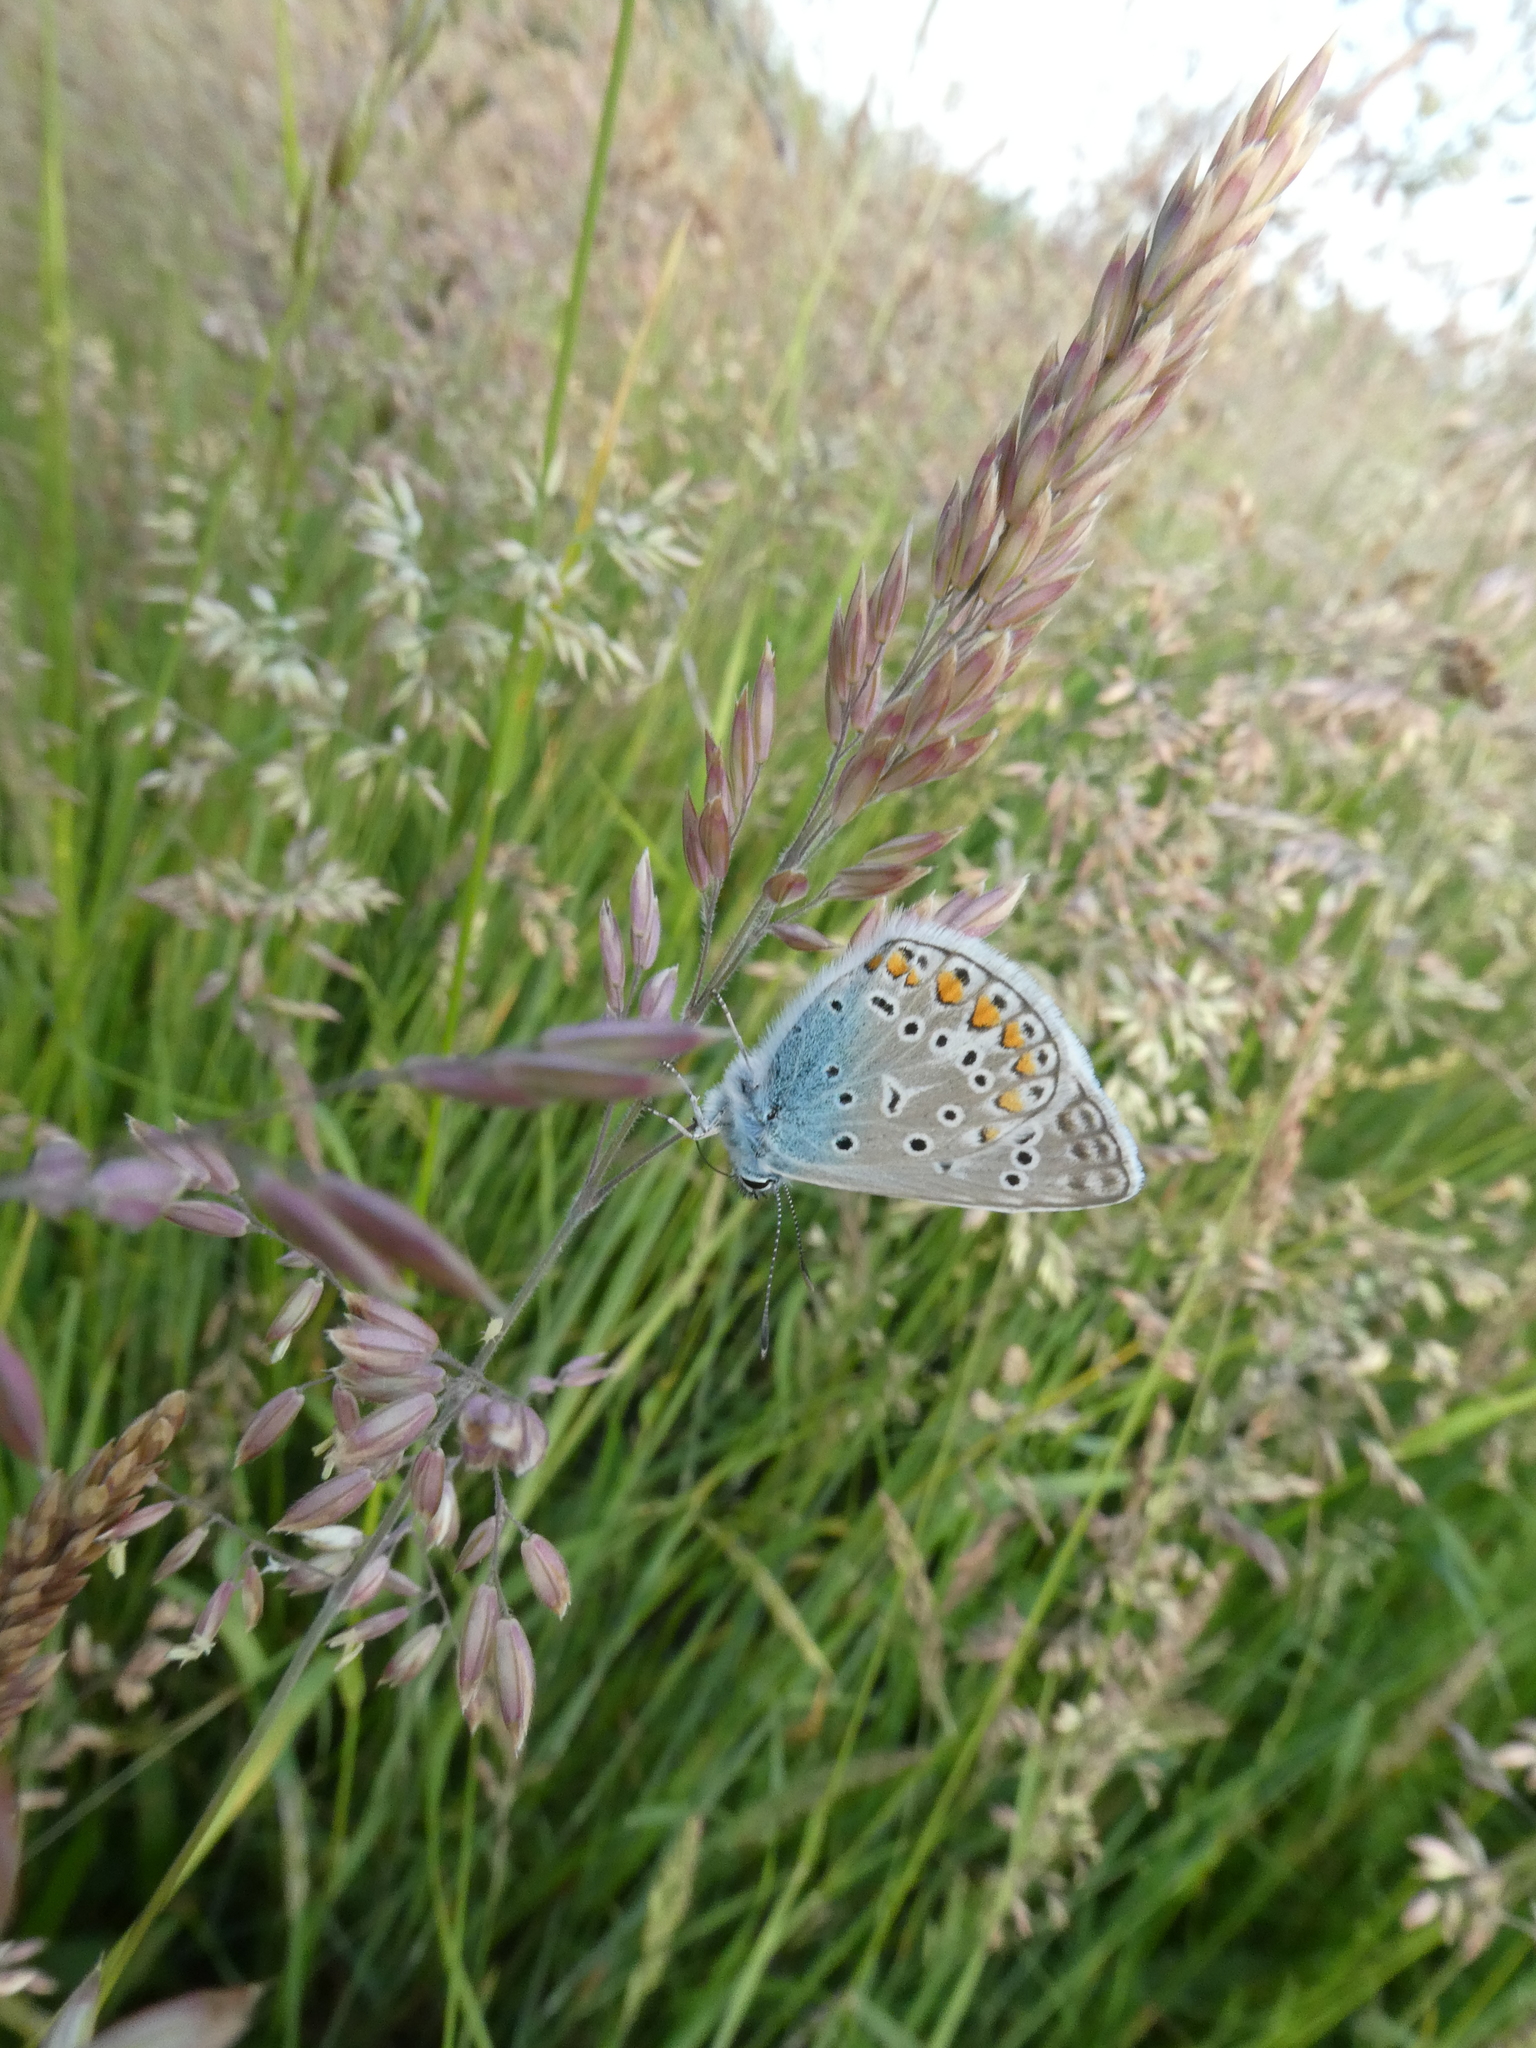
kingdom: Animalia
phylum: Arthropoda
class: Insecta
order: Lepidoptera
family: Lycaenidae
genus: Polyommatus
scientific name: Polyommatus icarus
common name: Common blue
